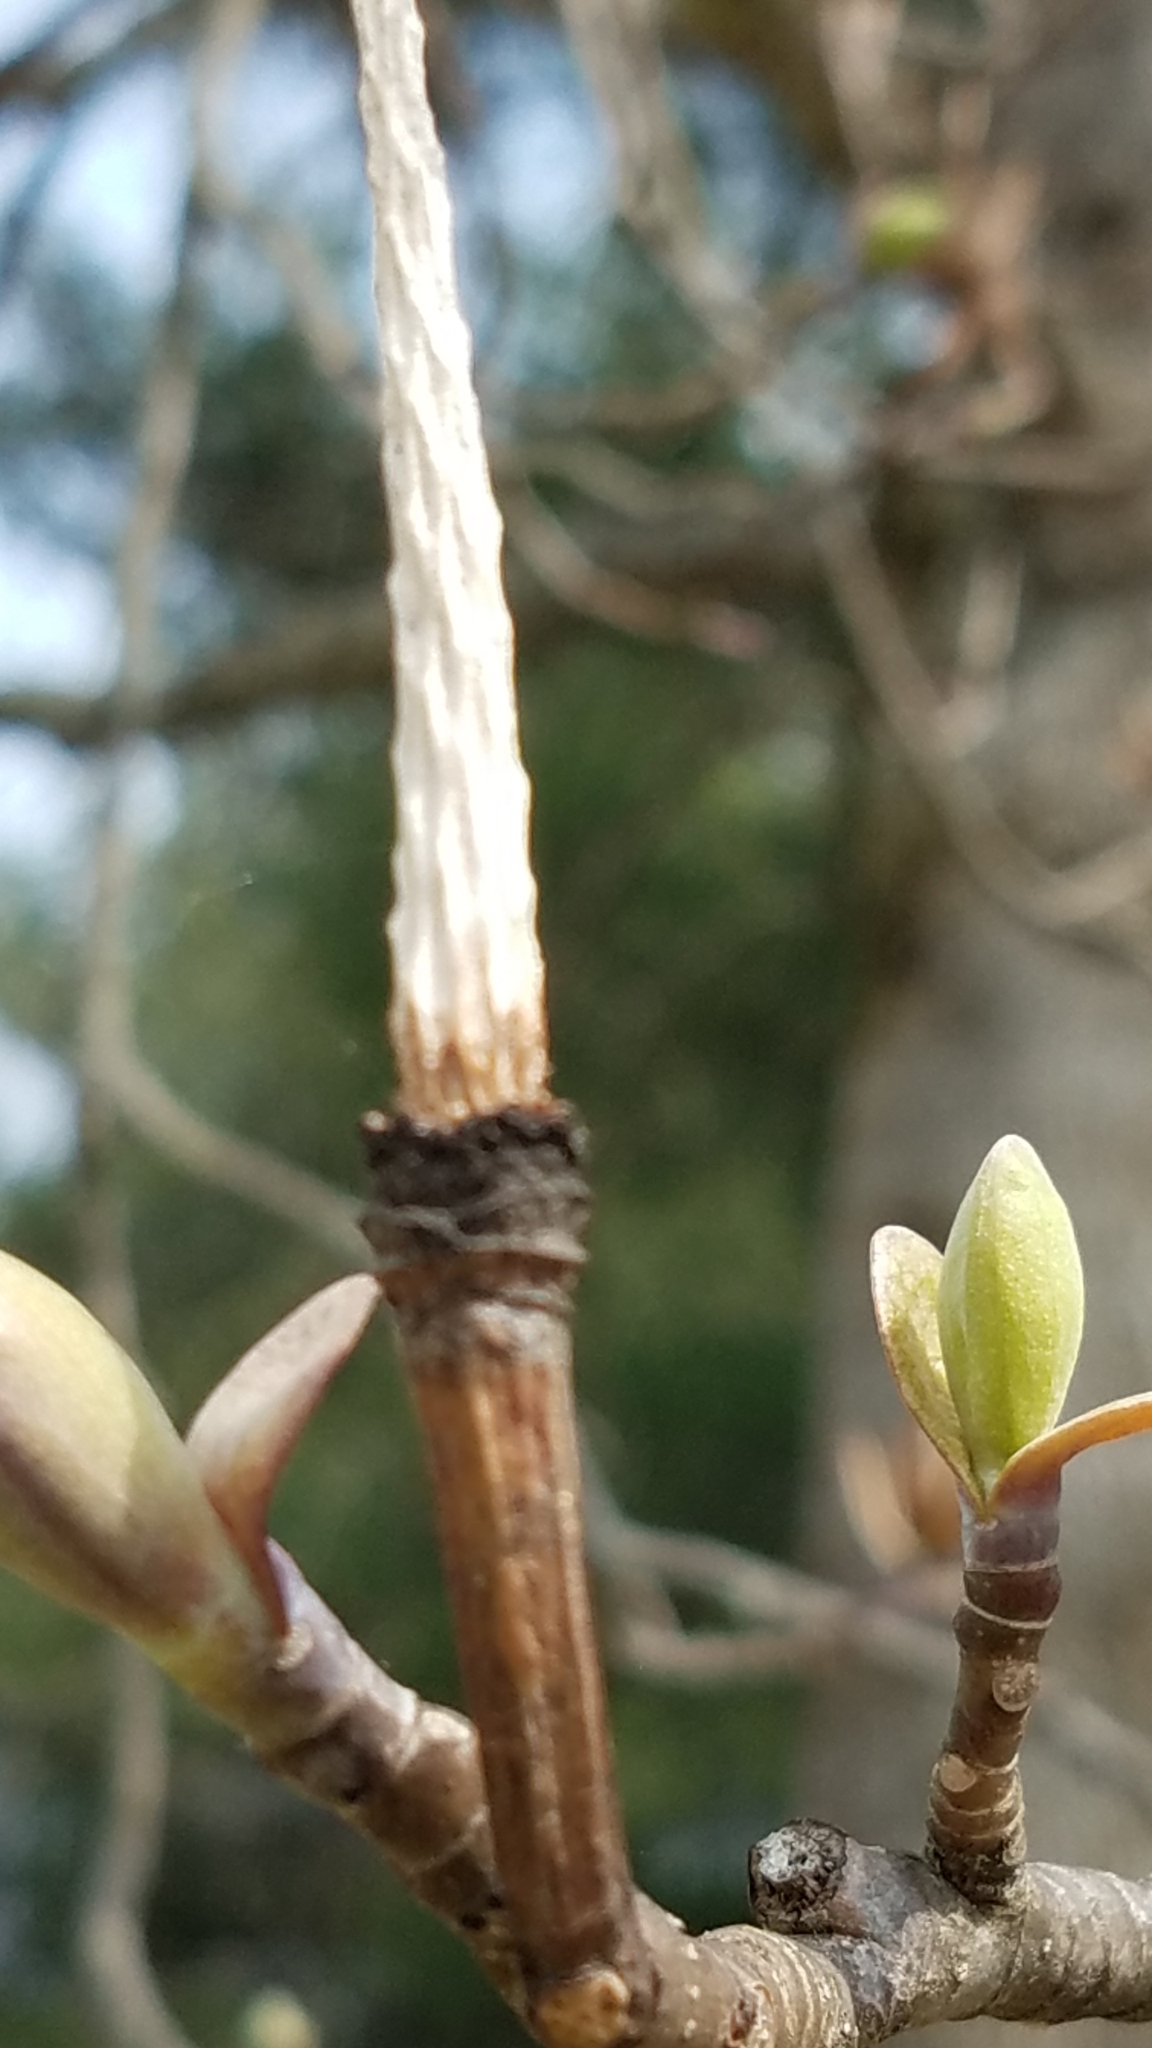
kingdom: Plantae
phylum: Tracheophyta
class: Magnoliopsida
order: Magnoliales
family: Magnoliaceae
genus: Liriodendron
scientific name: Liriodendron tulipifera
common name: Tulip tree
